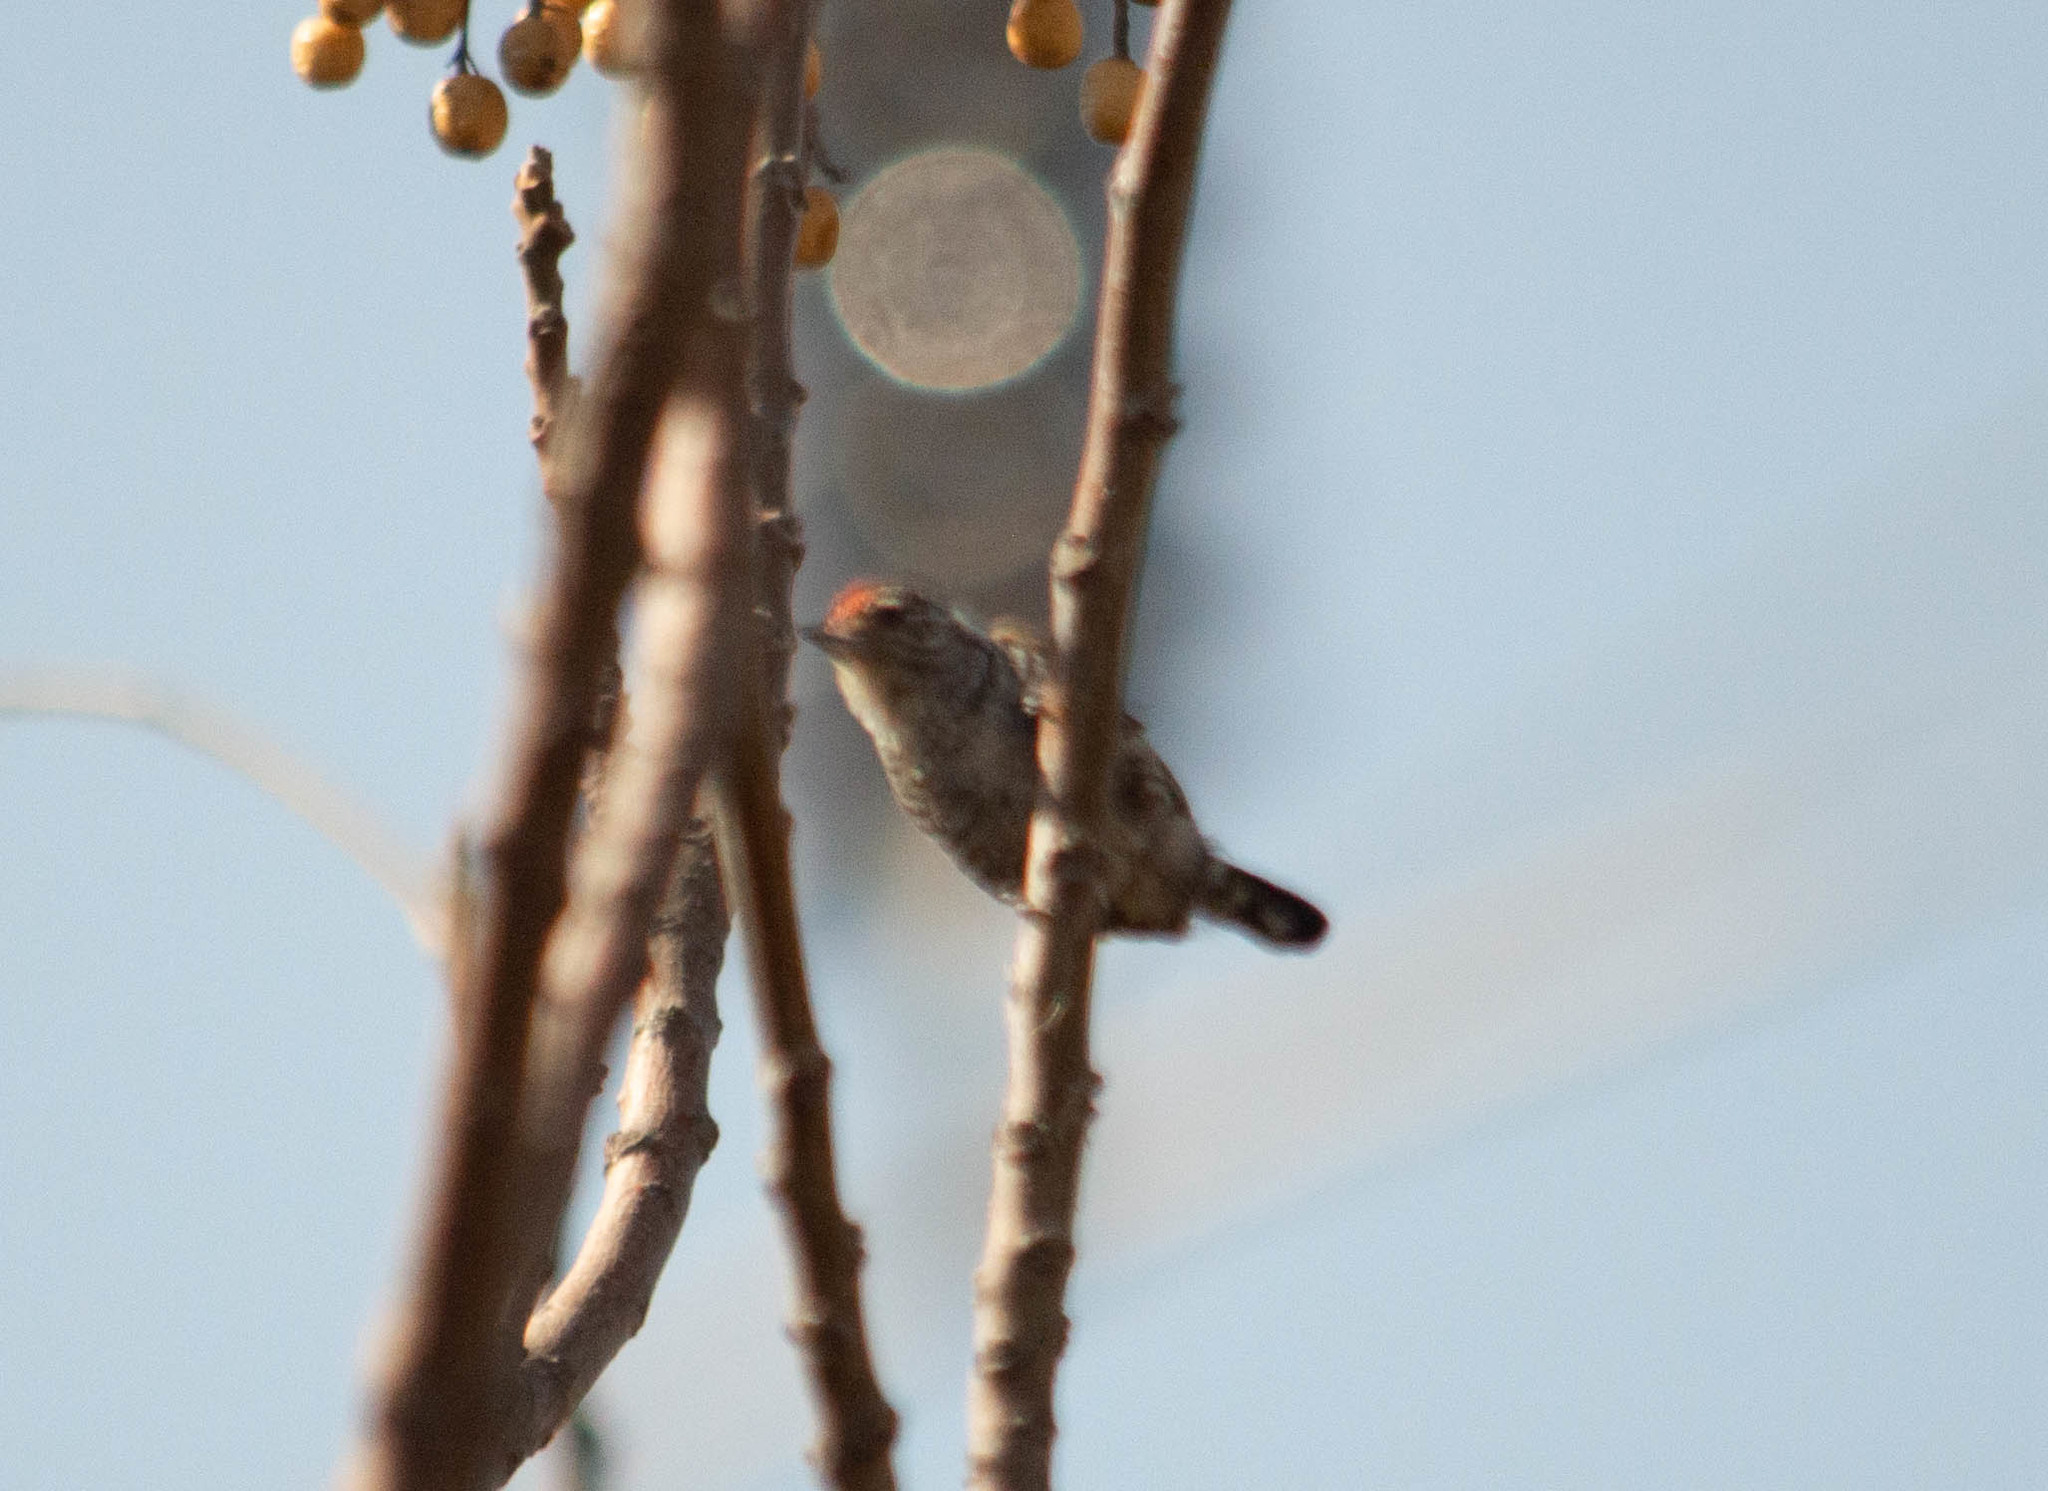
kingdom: Animalia
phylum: Chordata
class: Aves
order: Piciformes
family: Picidae
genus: Picumnus
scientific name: Picumnus cirratus
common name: White-barred piculet
